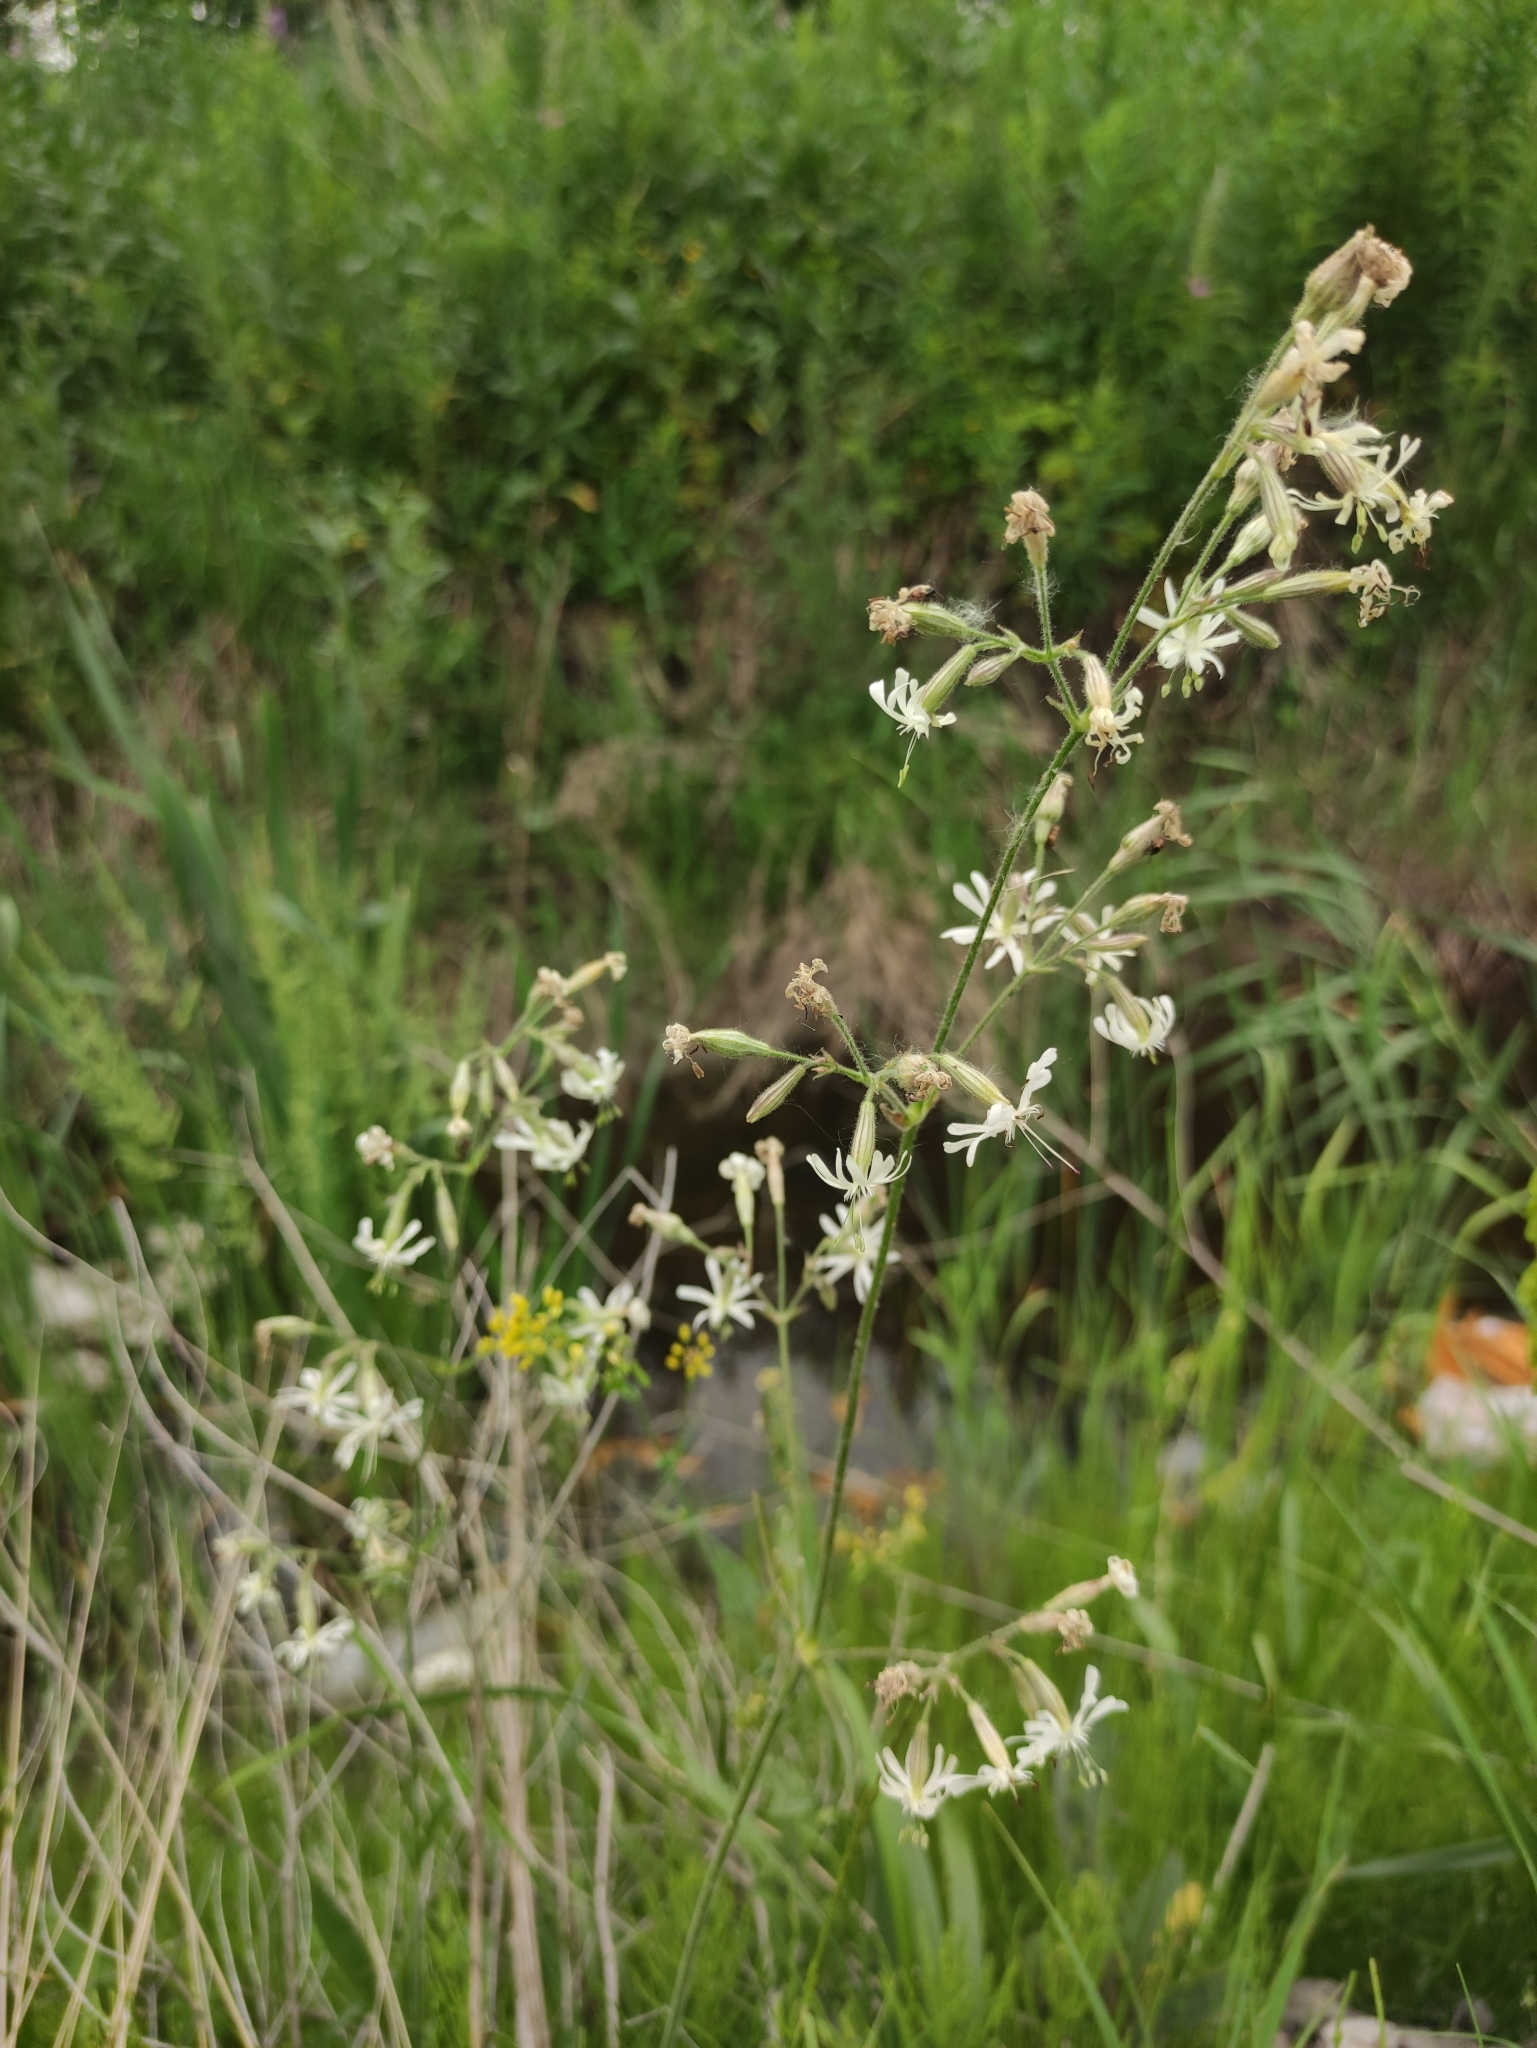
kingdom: Plantae
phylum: Tracheophyta
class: Magnoliopsida
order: Caryophyllales
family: Caryophyllaceae
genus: Silene
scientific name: Silene nutans
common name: Nottingham catchfly
